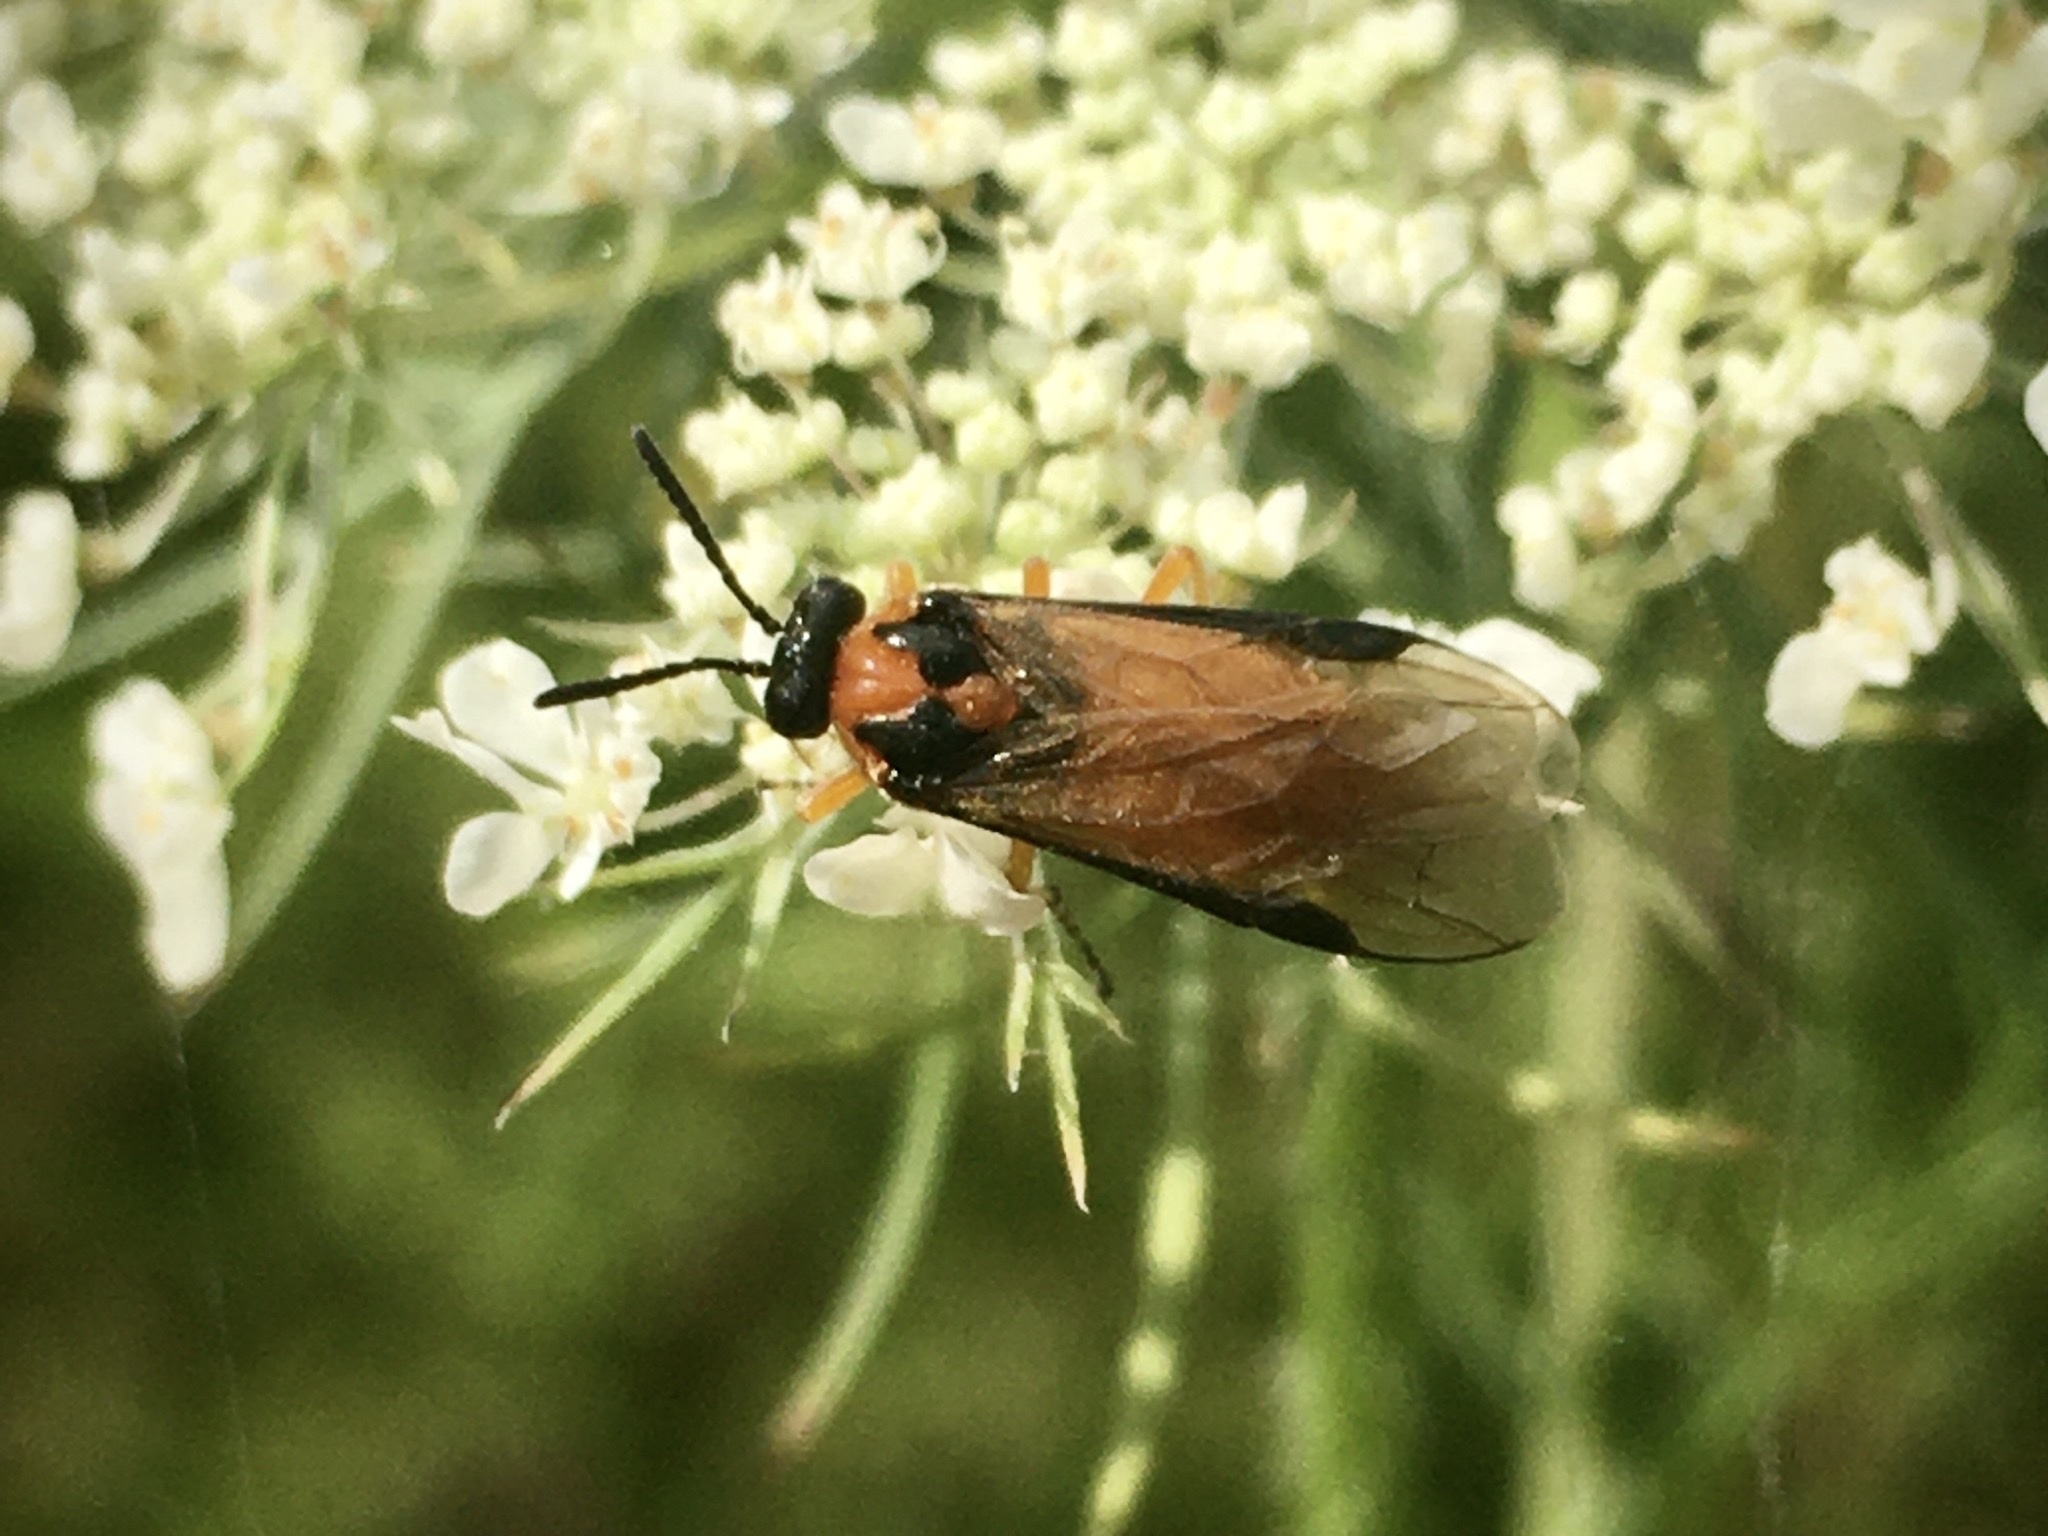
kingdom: Animalia
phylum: Arthropoda
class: Insecta
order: Hymenoptera
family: Tenthredinidae
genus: Athalia
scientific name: Athalia rosae
